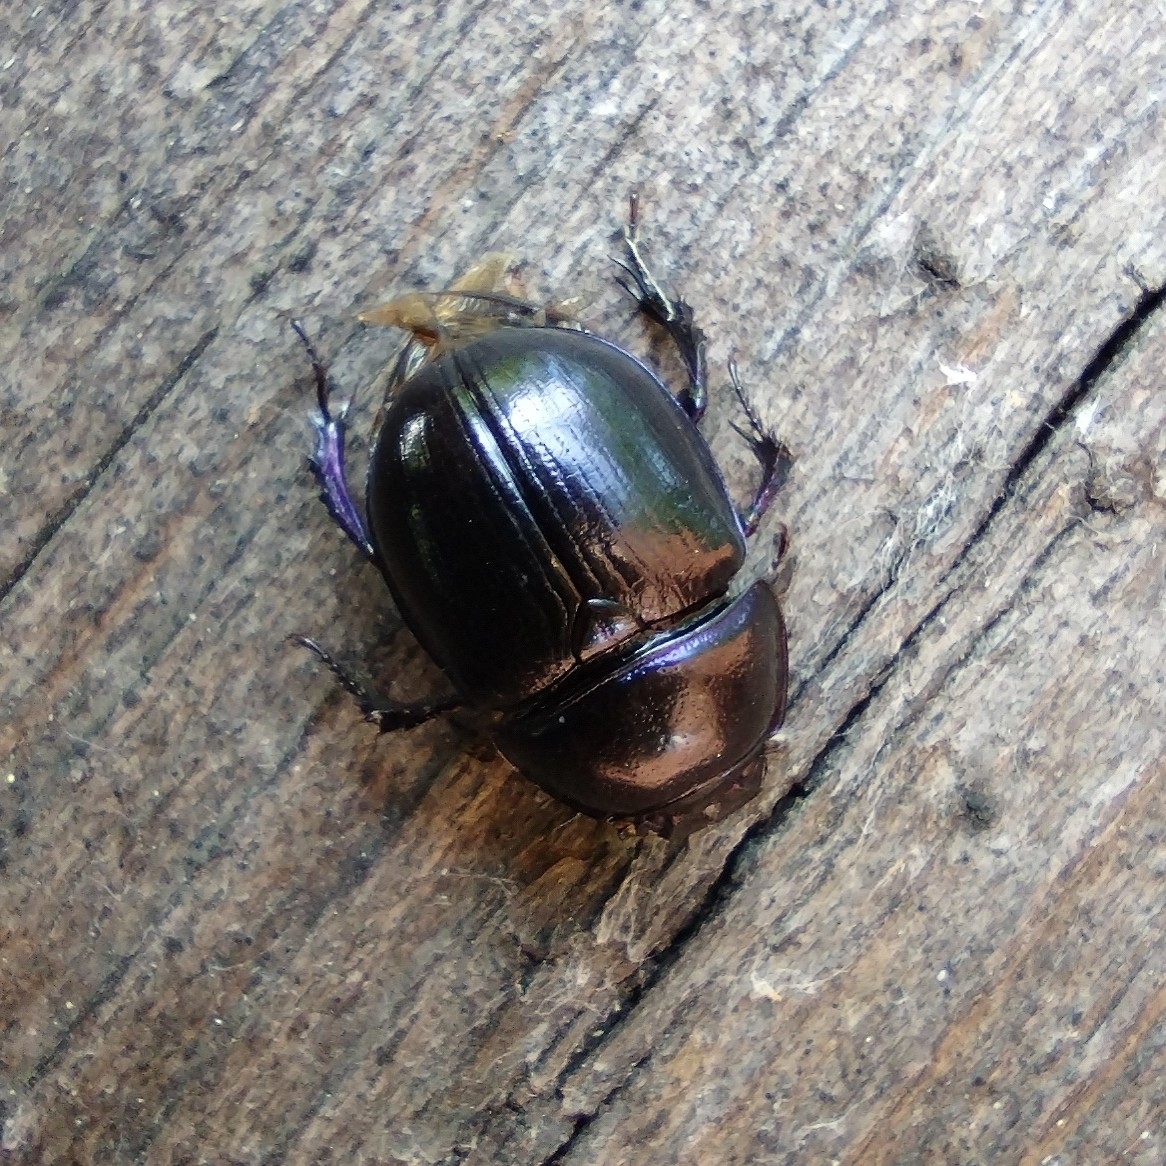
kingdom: Animalia
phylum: Arthropoda
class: Insecta
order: Coleoptera
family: Geotrupidae
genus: Anoplotrupes
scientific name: Anoplotrupes stercorosus
